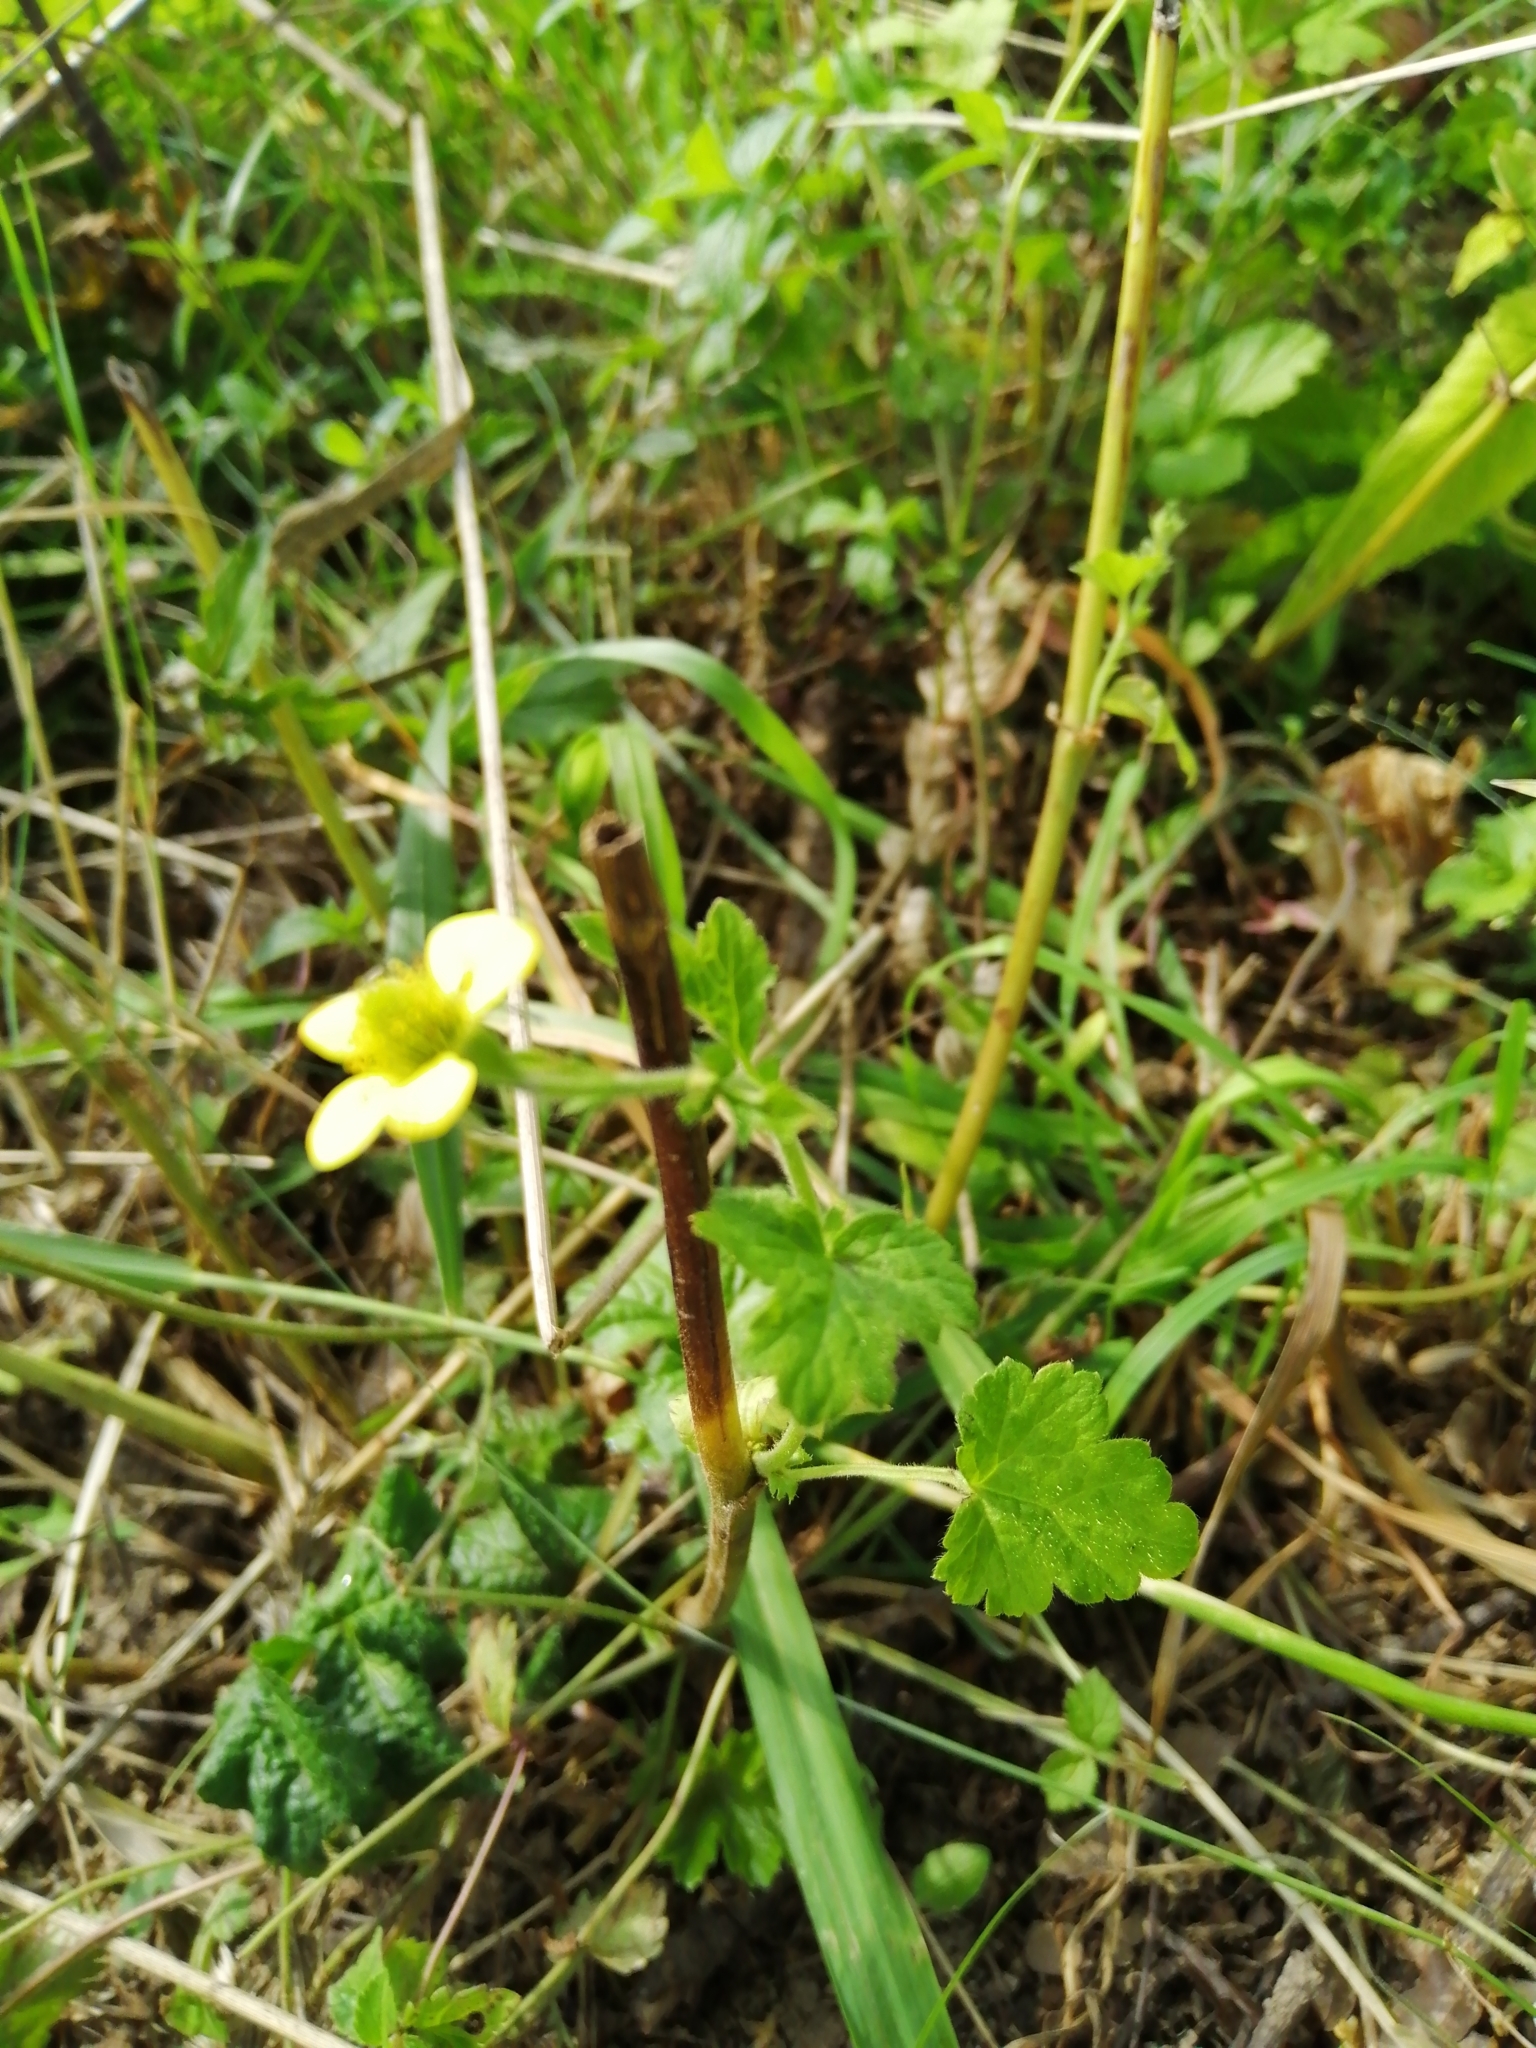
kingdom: Plantae
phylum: Tracheophyta
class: Magnoliopsida
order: Rosales
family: Rosaceae
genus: Geum
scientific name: Geum urbanum
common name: Wood avens
